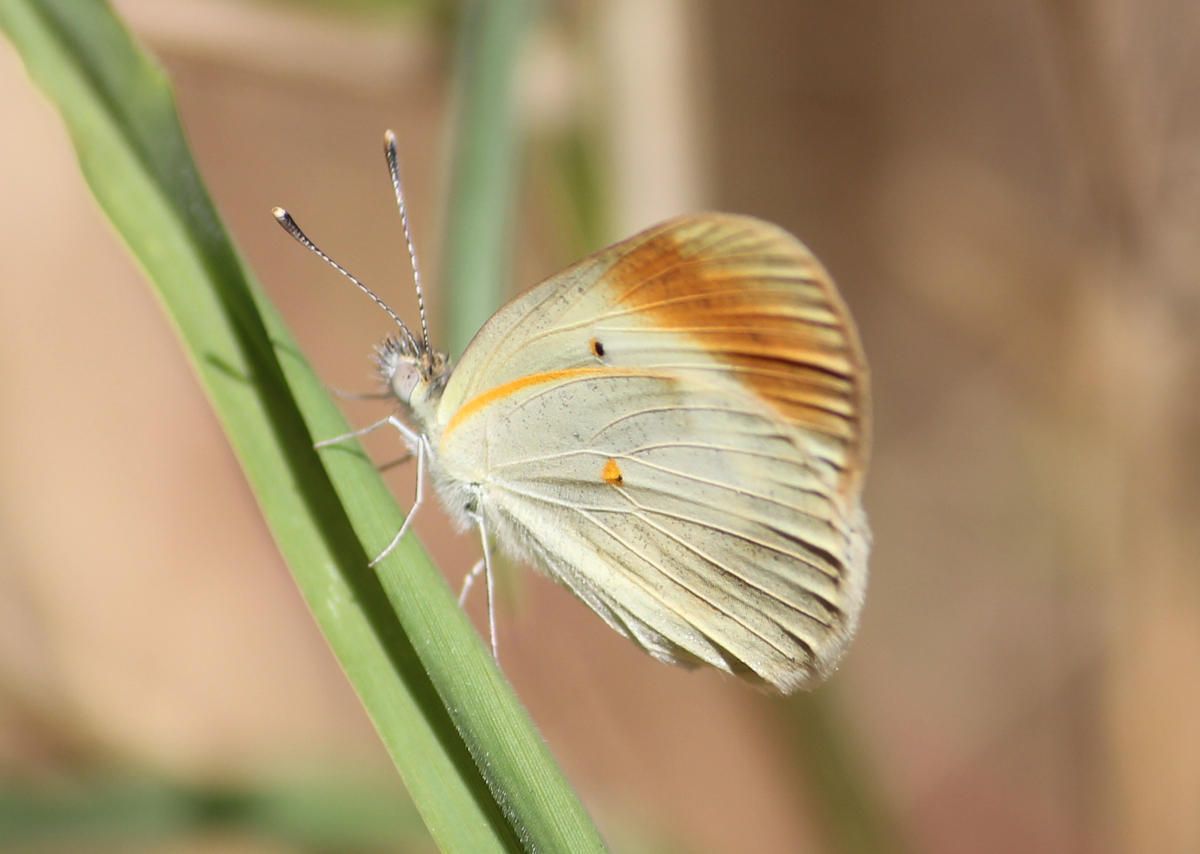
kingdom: Animalia
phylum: Arthropoda
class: Insecta
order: Lepidoptera
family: Pieridae
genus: Colotis
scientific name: Colotis evagore
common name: Desert orange-tip
